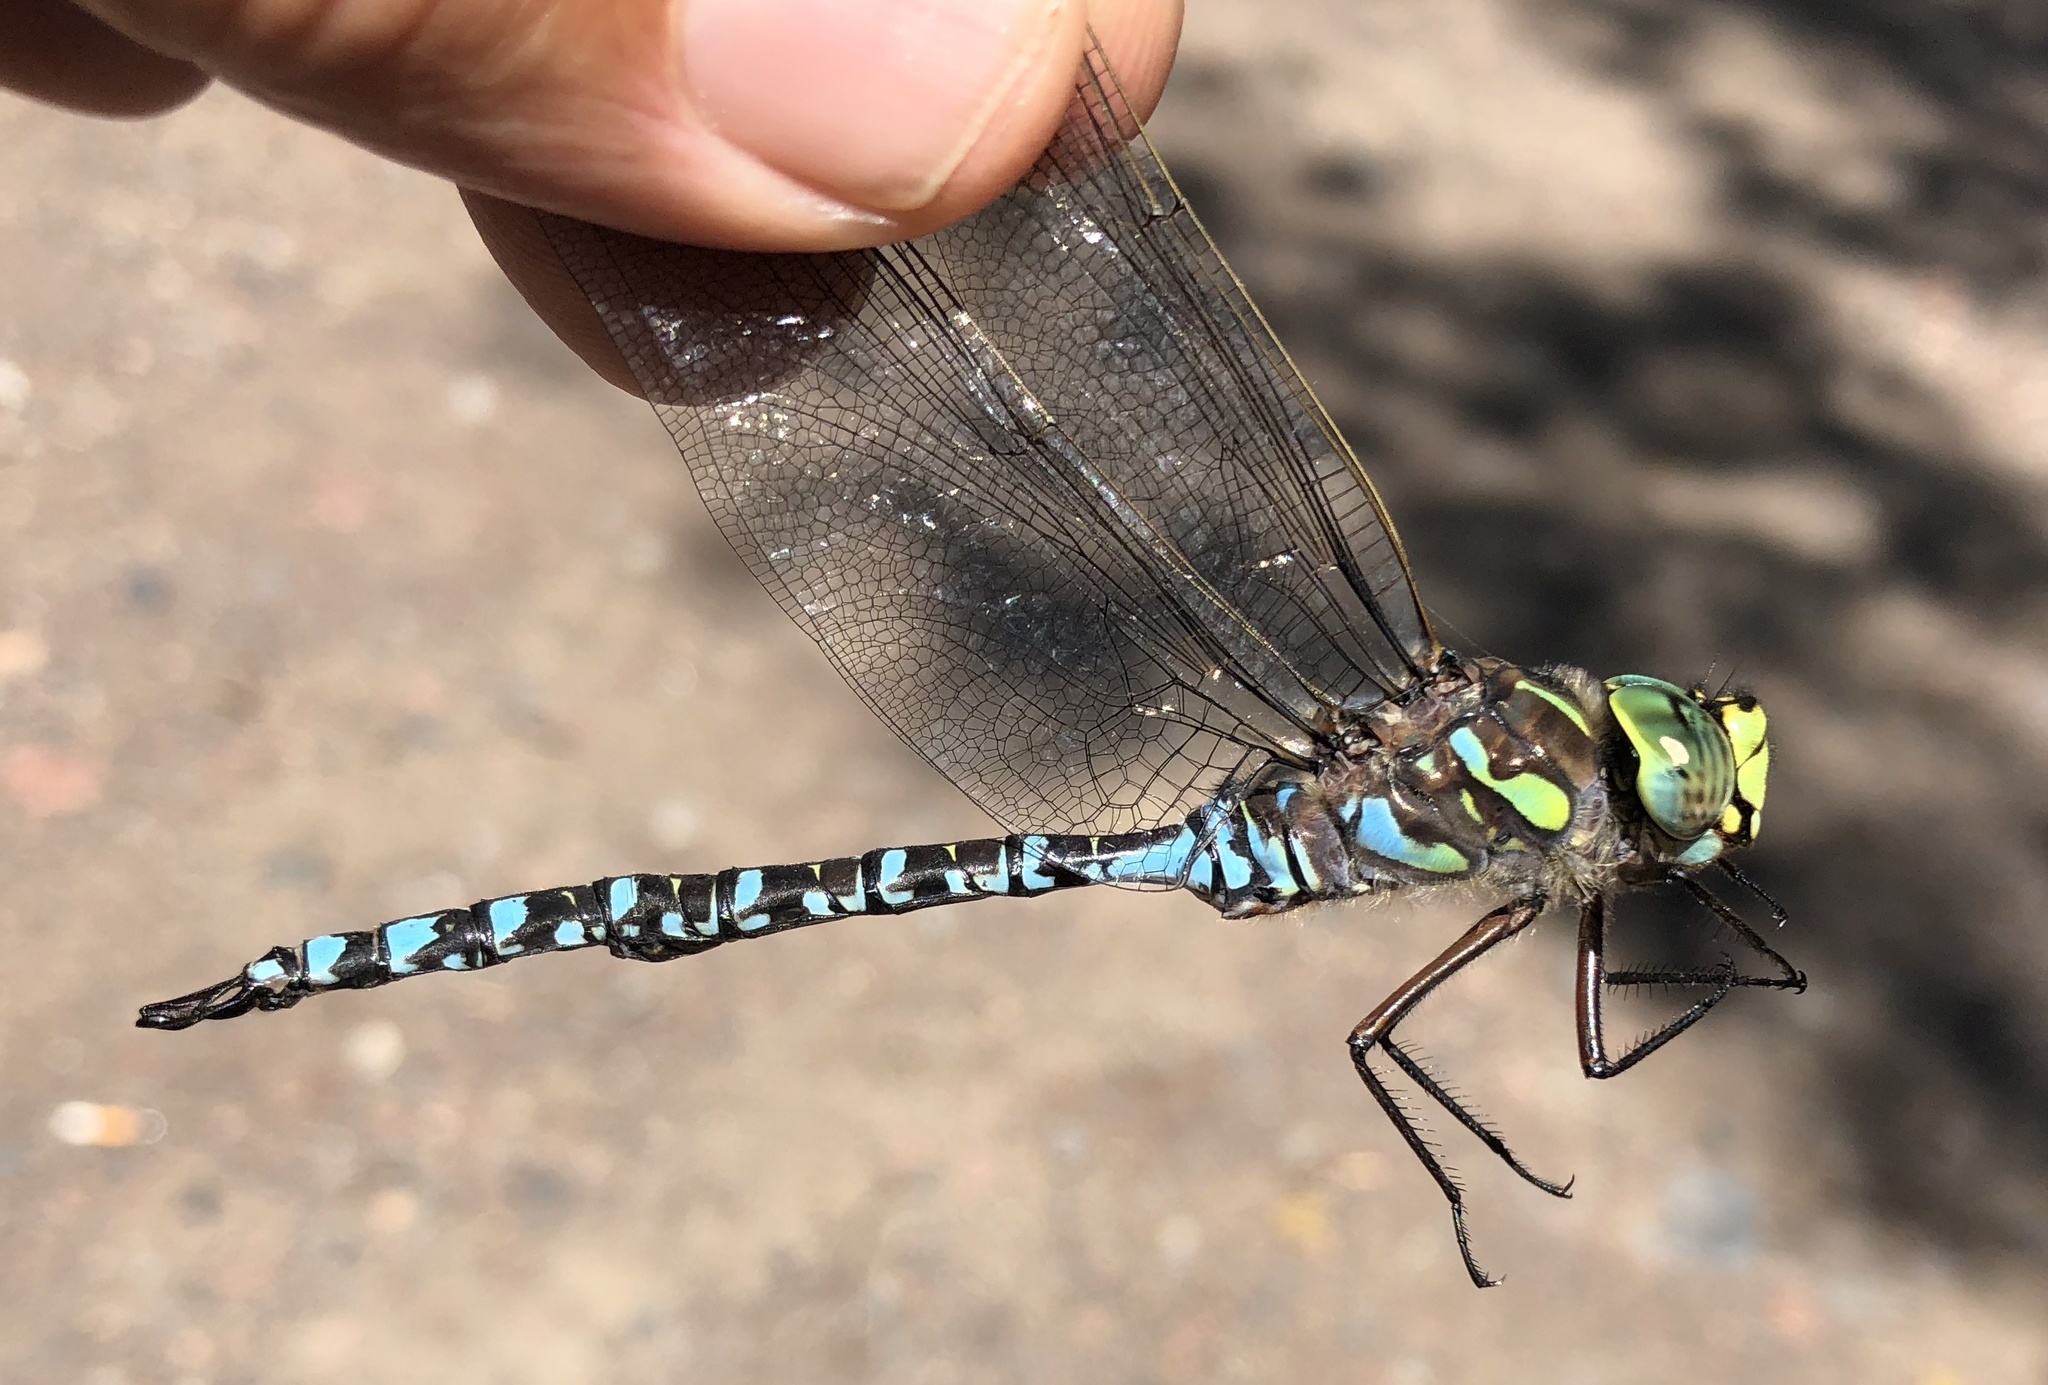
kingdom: Animalia
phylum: Arthropoda
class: Insecta
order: Odonata
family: Aeshnidae
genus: Aeshna
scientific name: Aeshna eremita
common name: Lake darner
